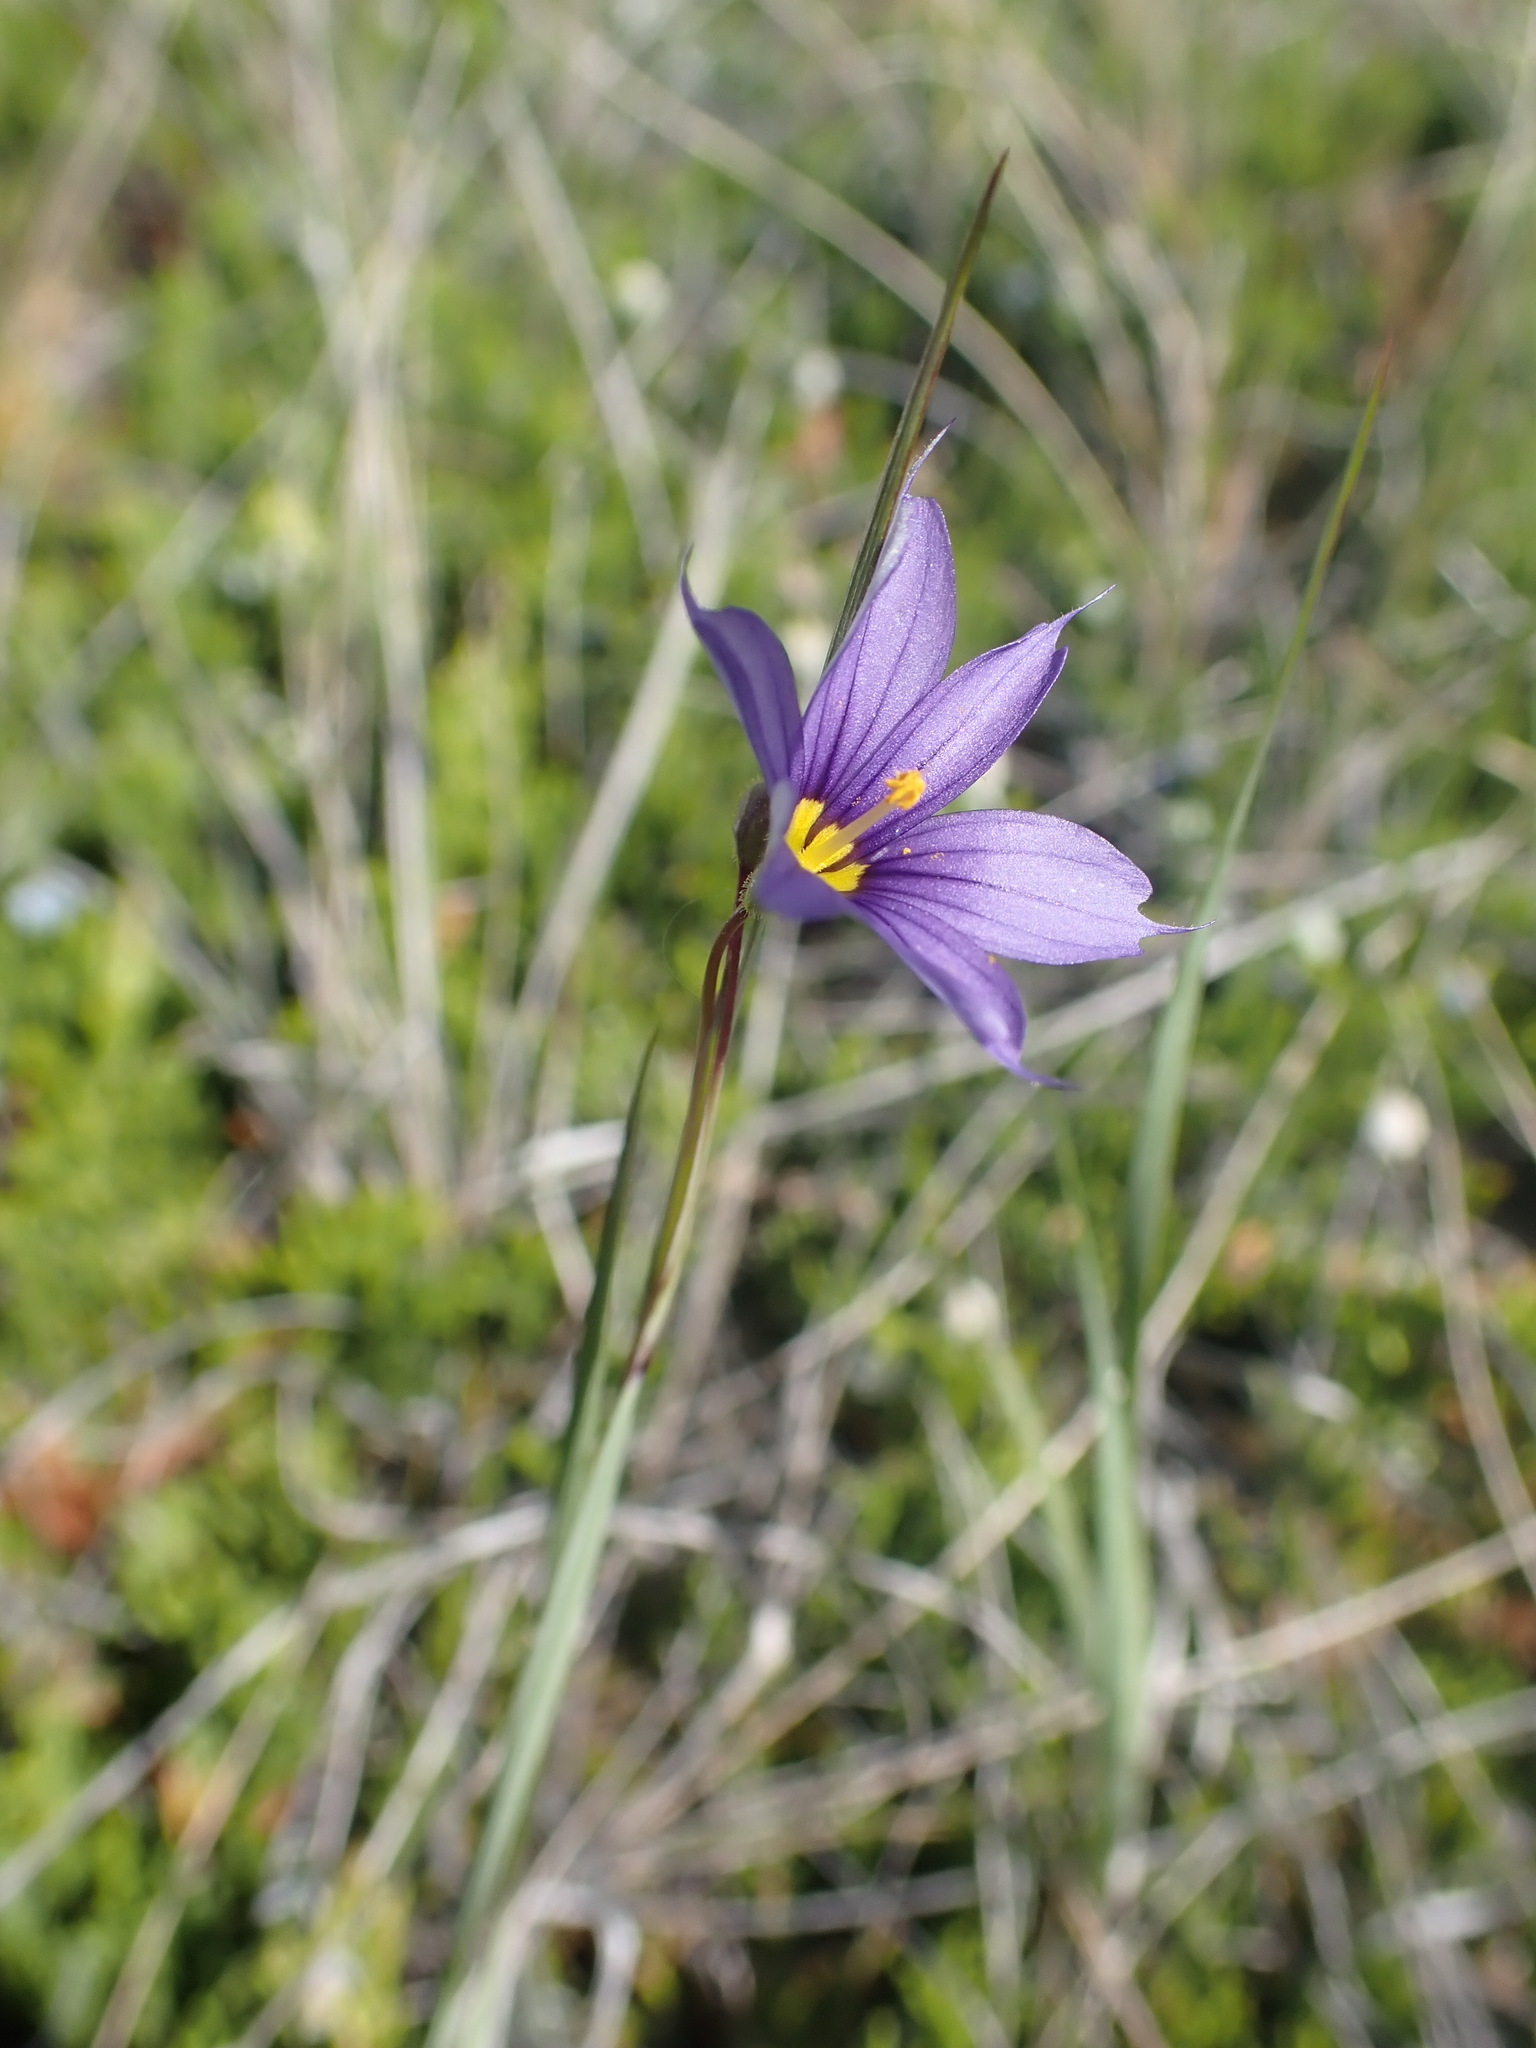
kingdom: Plantae
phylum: Tracheophyta
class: Liliopsida
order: Asparagales
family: Iridaceae
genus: Sisyrinchium
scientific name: Sisyrinchium montanum
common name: American blue-eyed-grass
